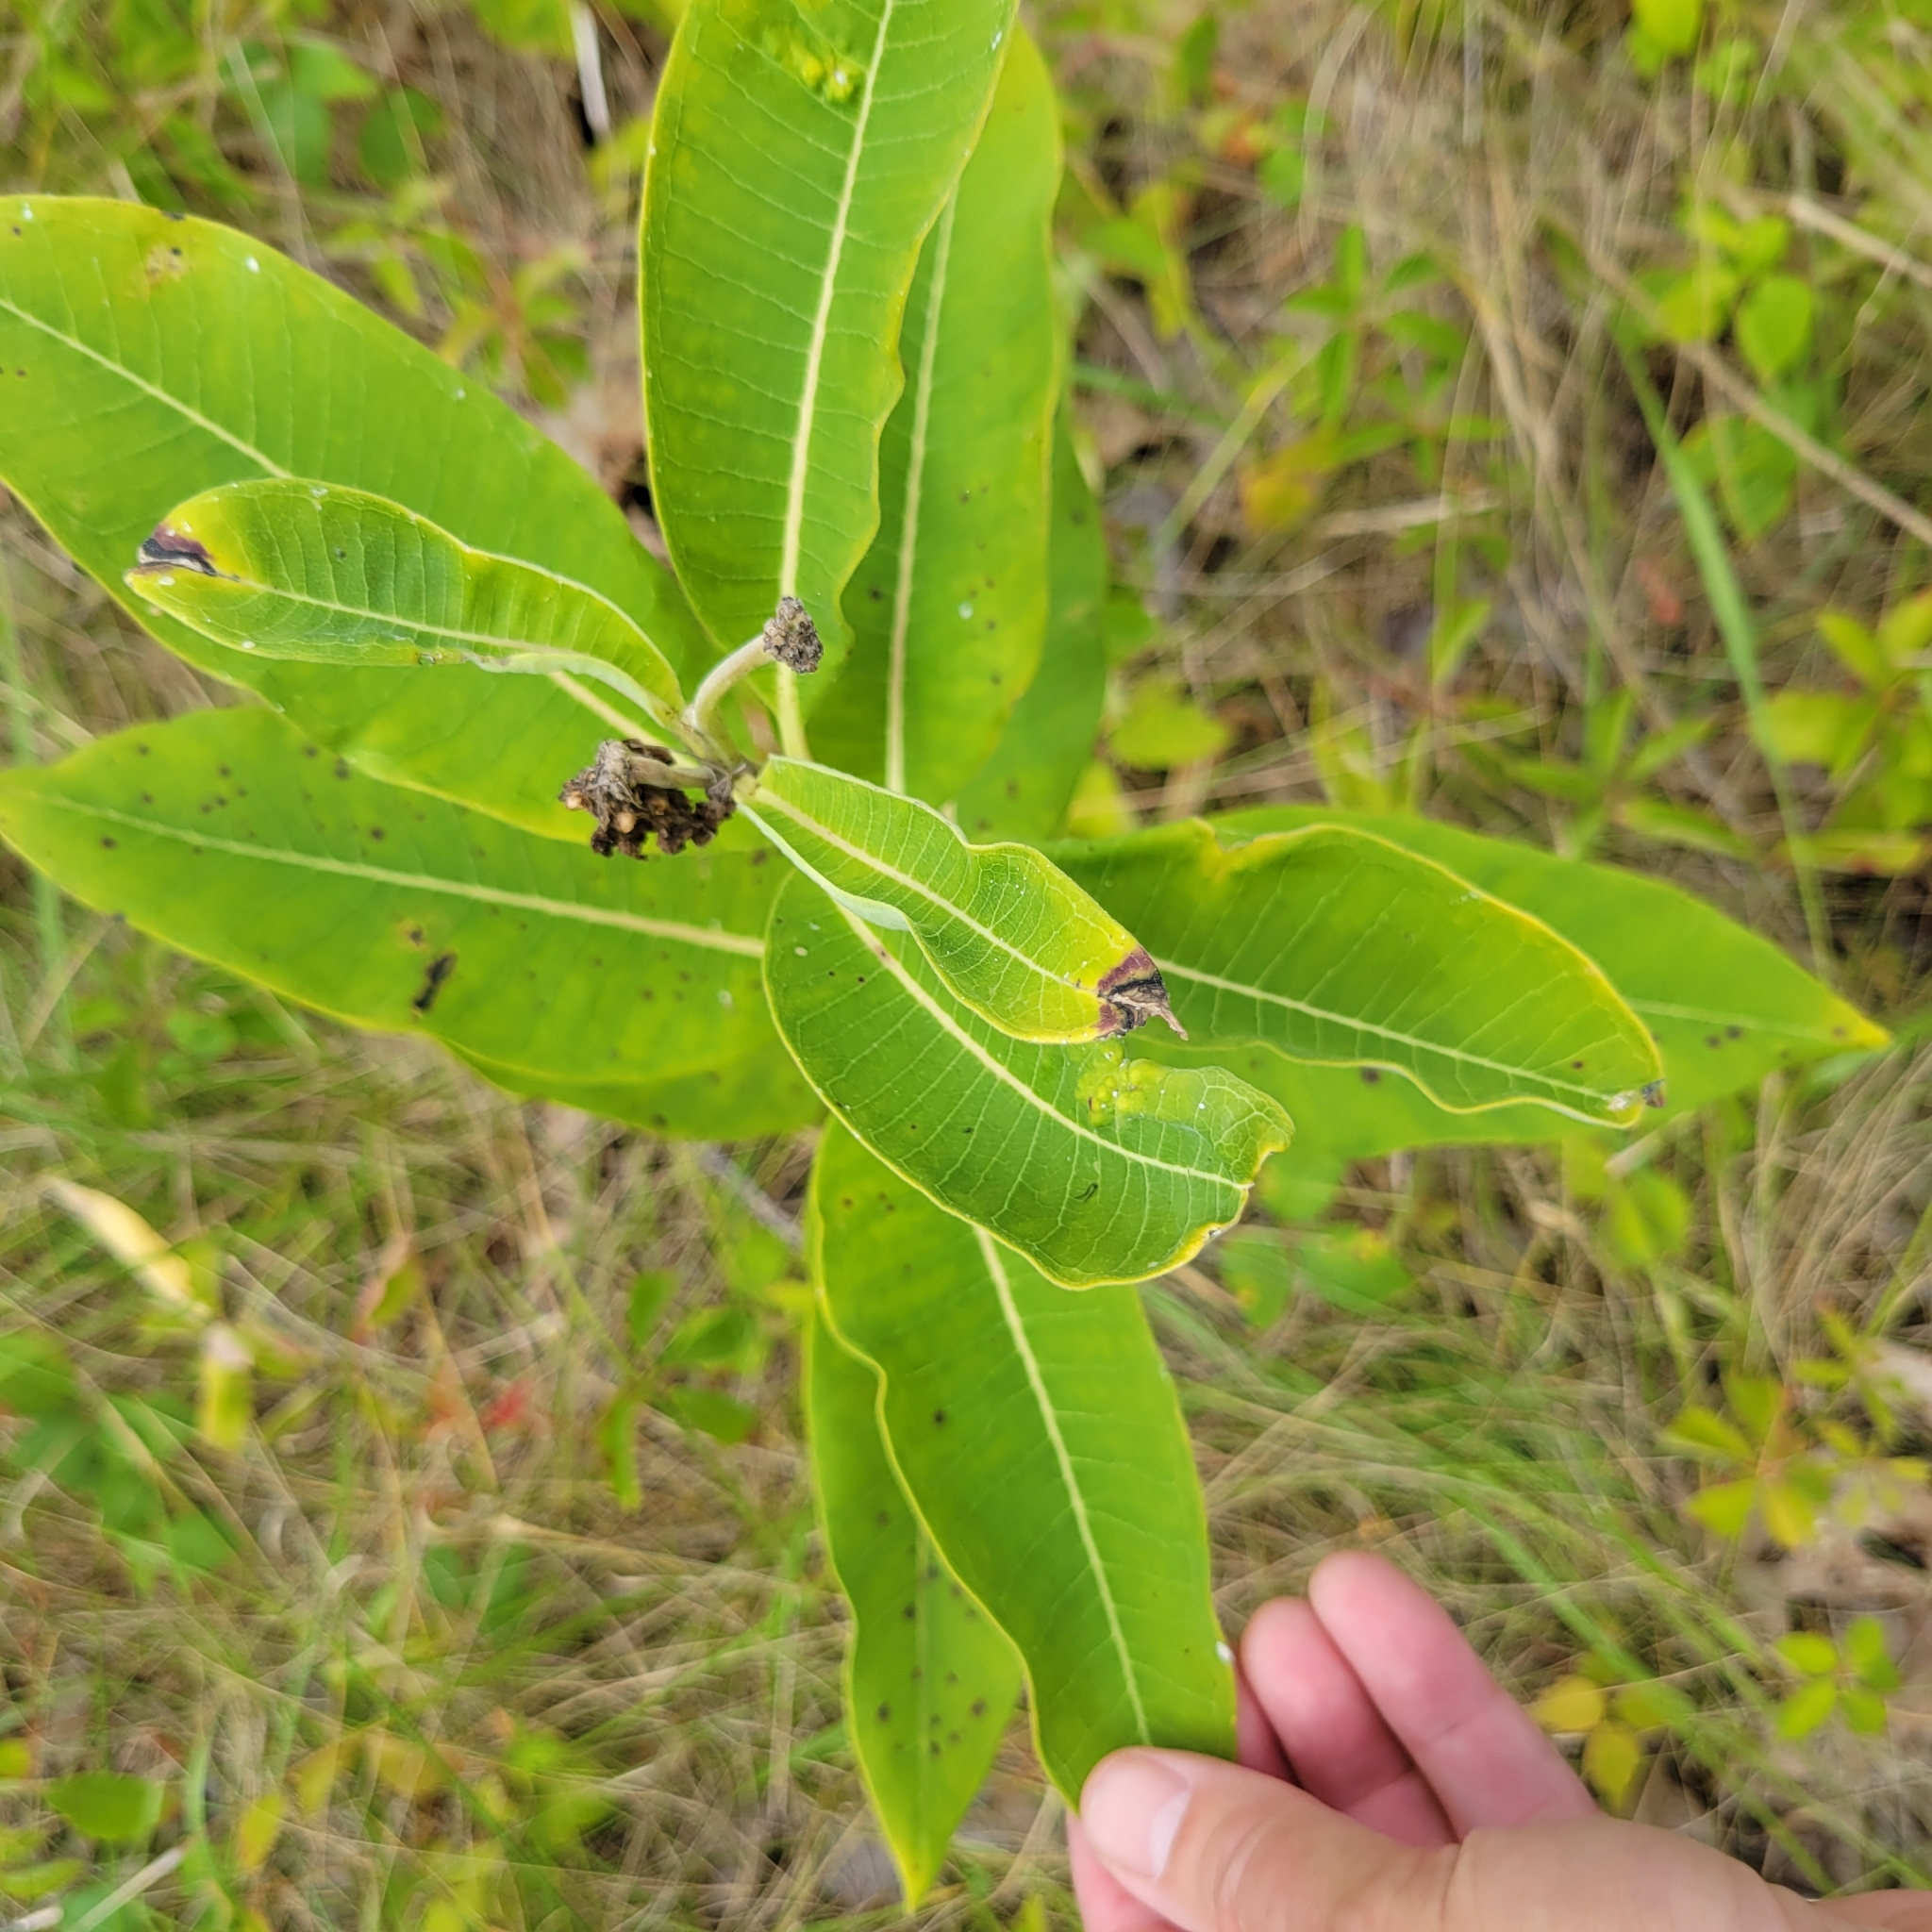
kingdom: Plantae
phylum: Tracheophyta
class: Magnoliopsida
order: Gentianales
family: Apocynaceae
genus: Asclepias
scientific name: Asclepias syriaca
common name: Common milkweed
